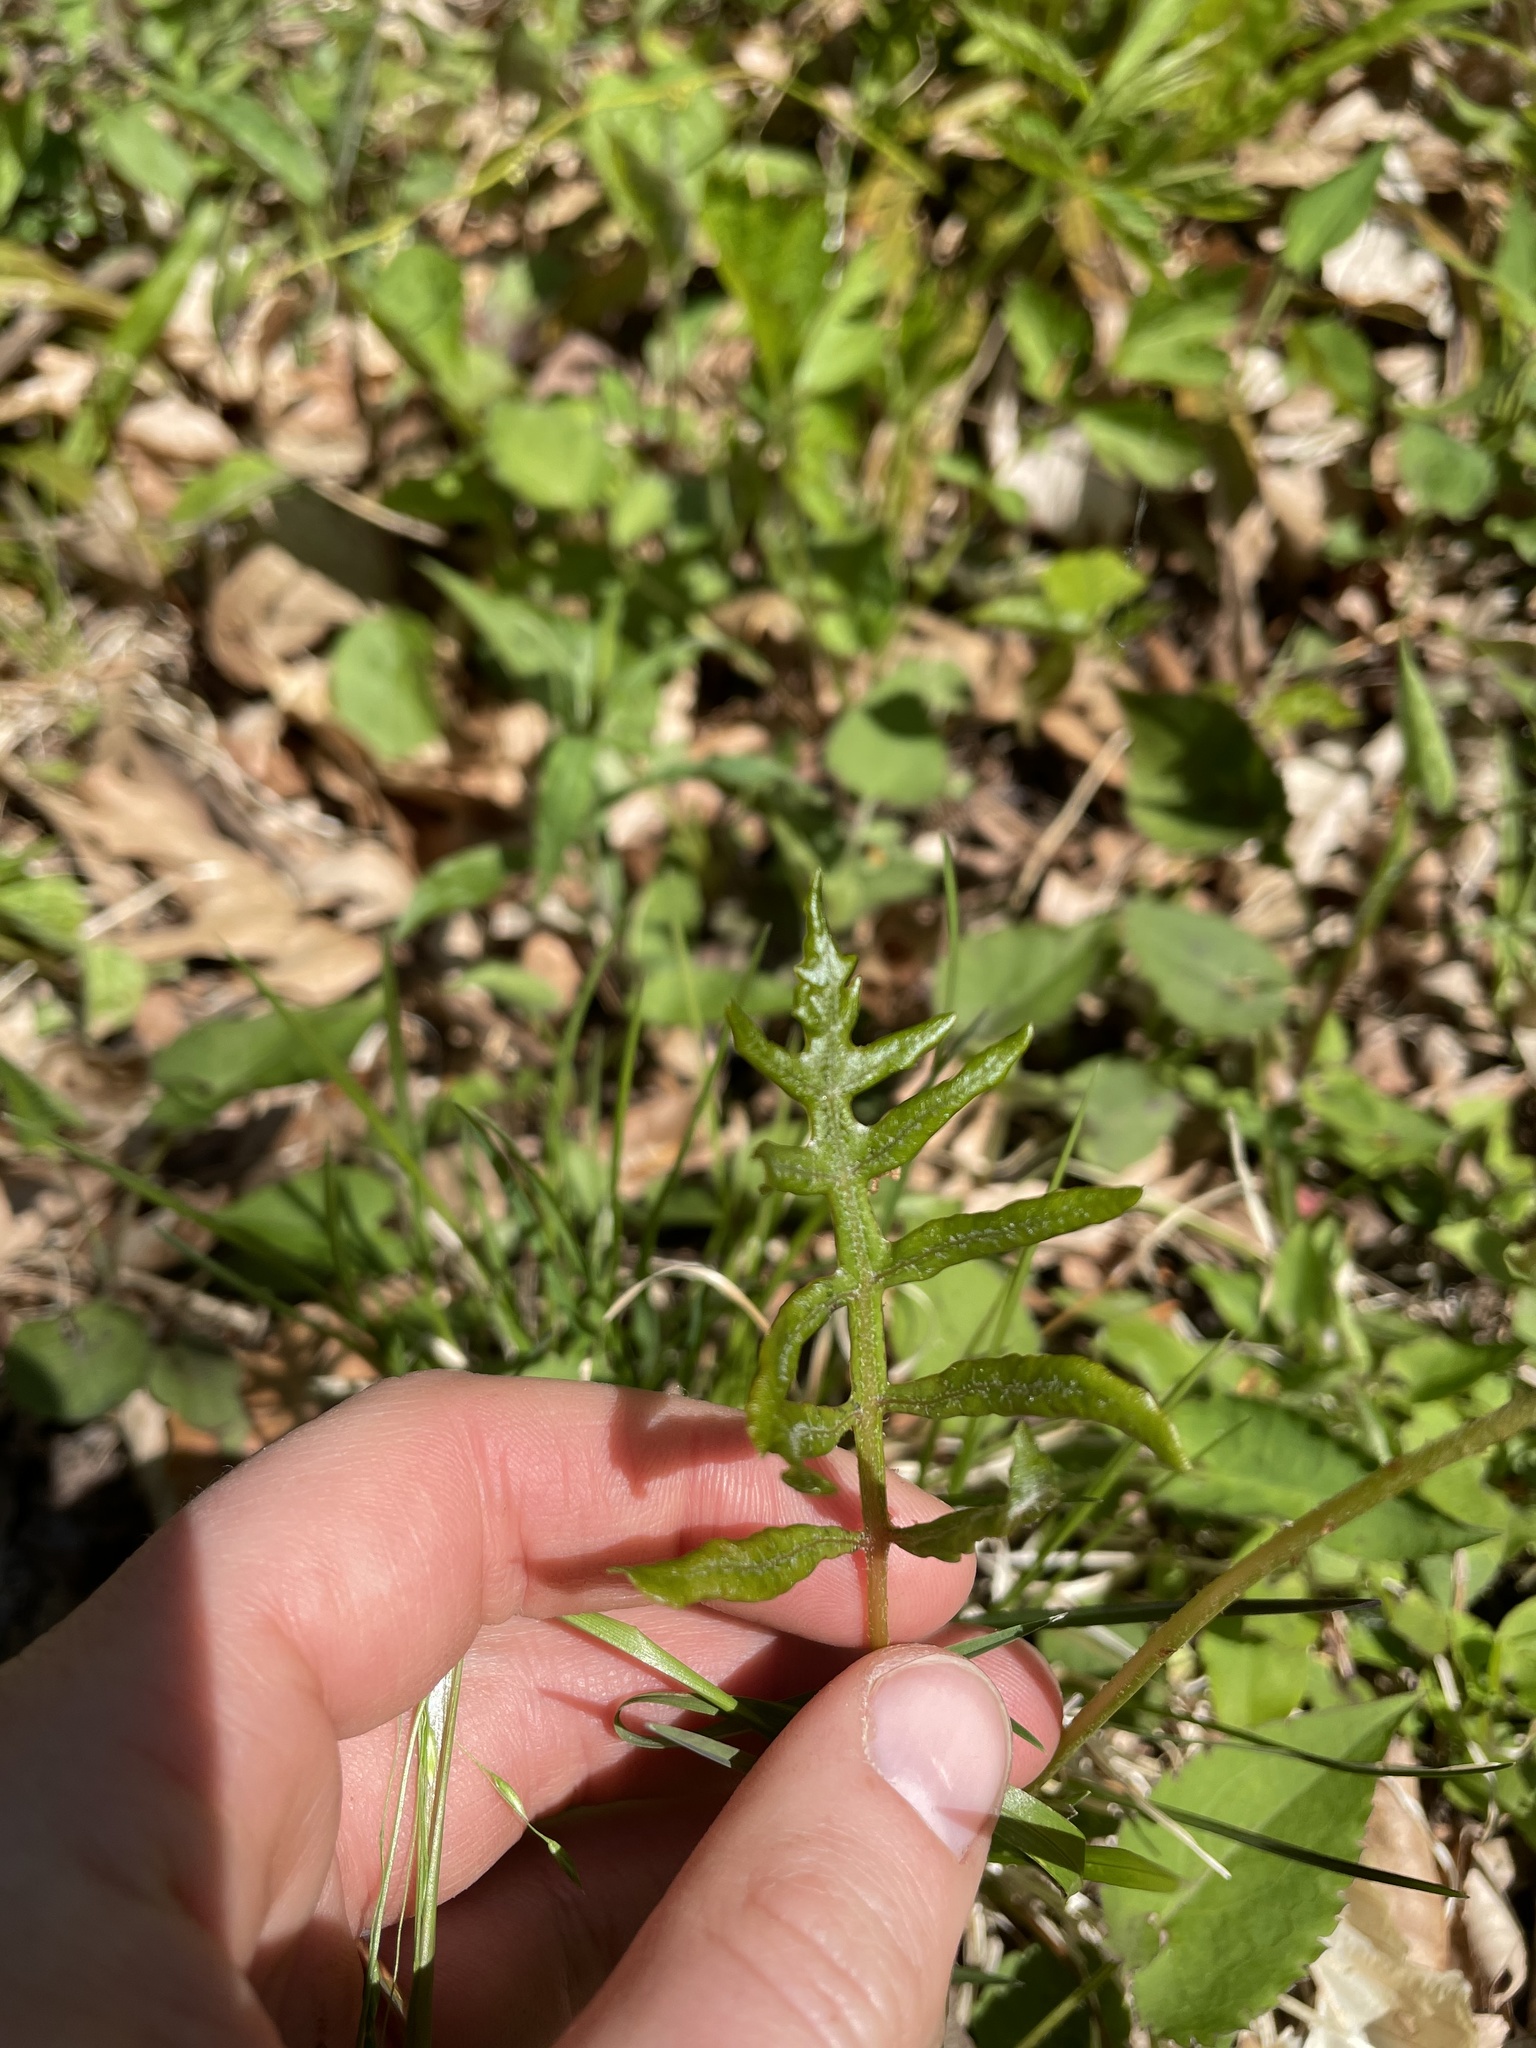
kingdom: Plantae
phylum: Tracheophyta
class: Polypodiopsida
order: Polypodiales
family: Onocleaceae
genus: Onoclea
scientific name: Onoclea sensibilis
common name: Sensitive fern
